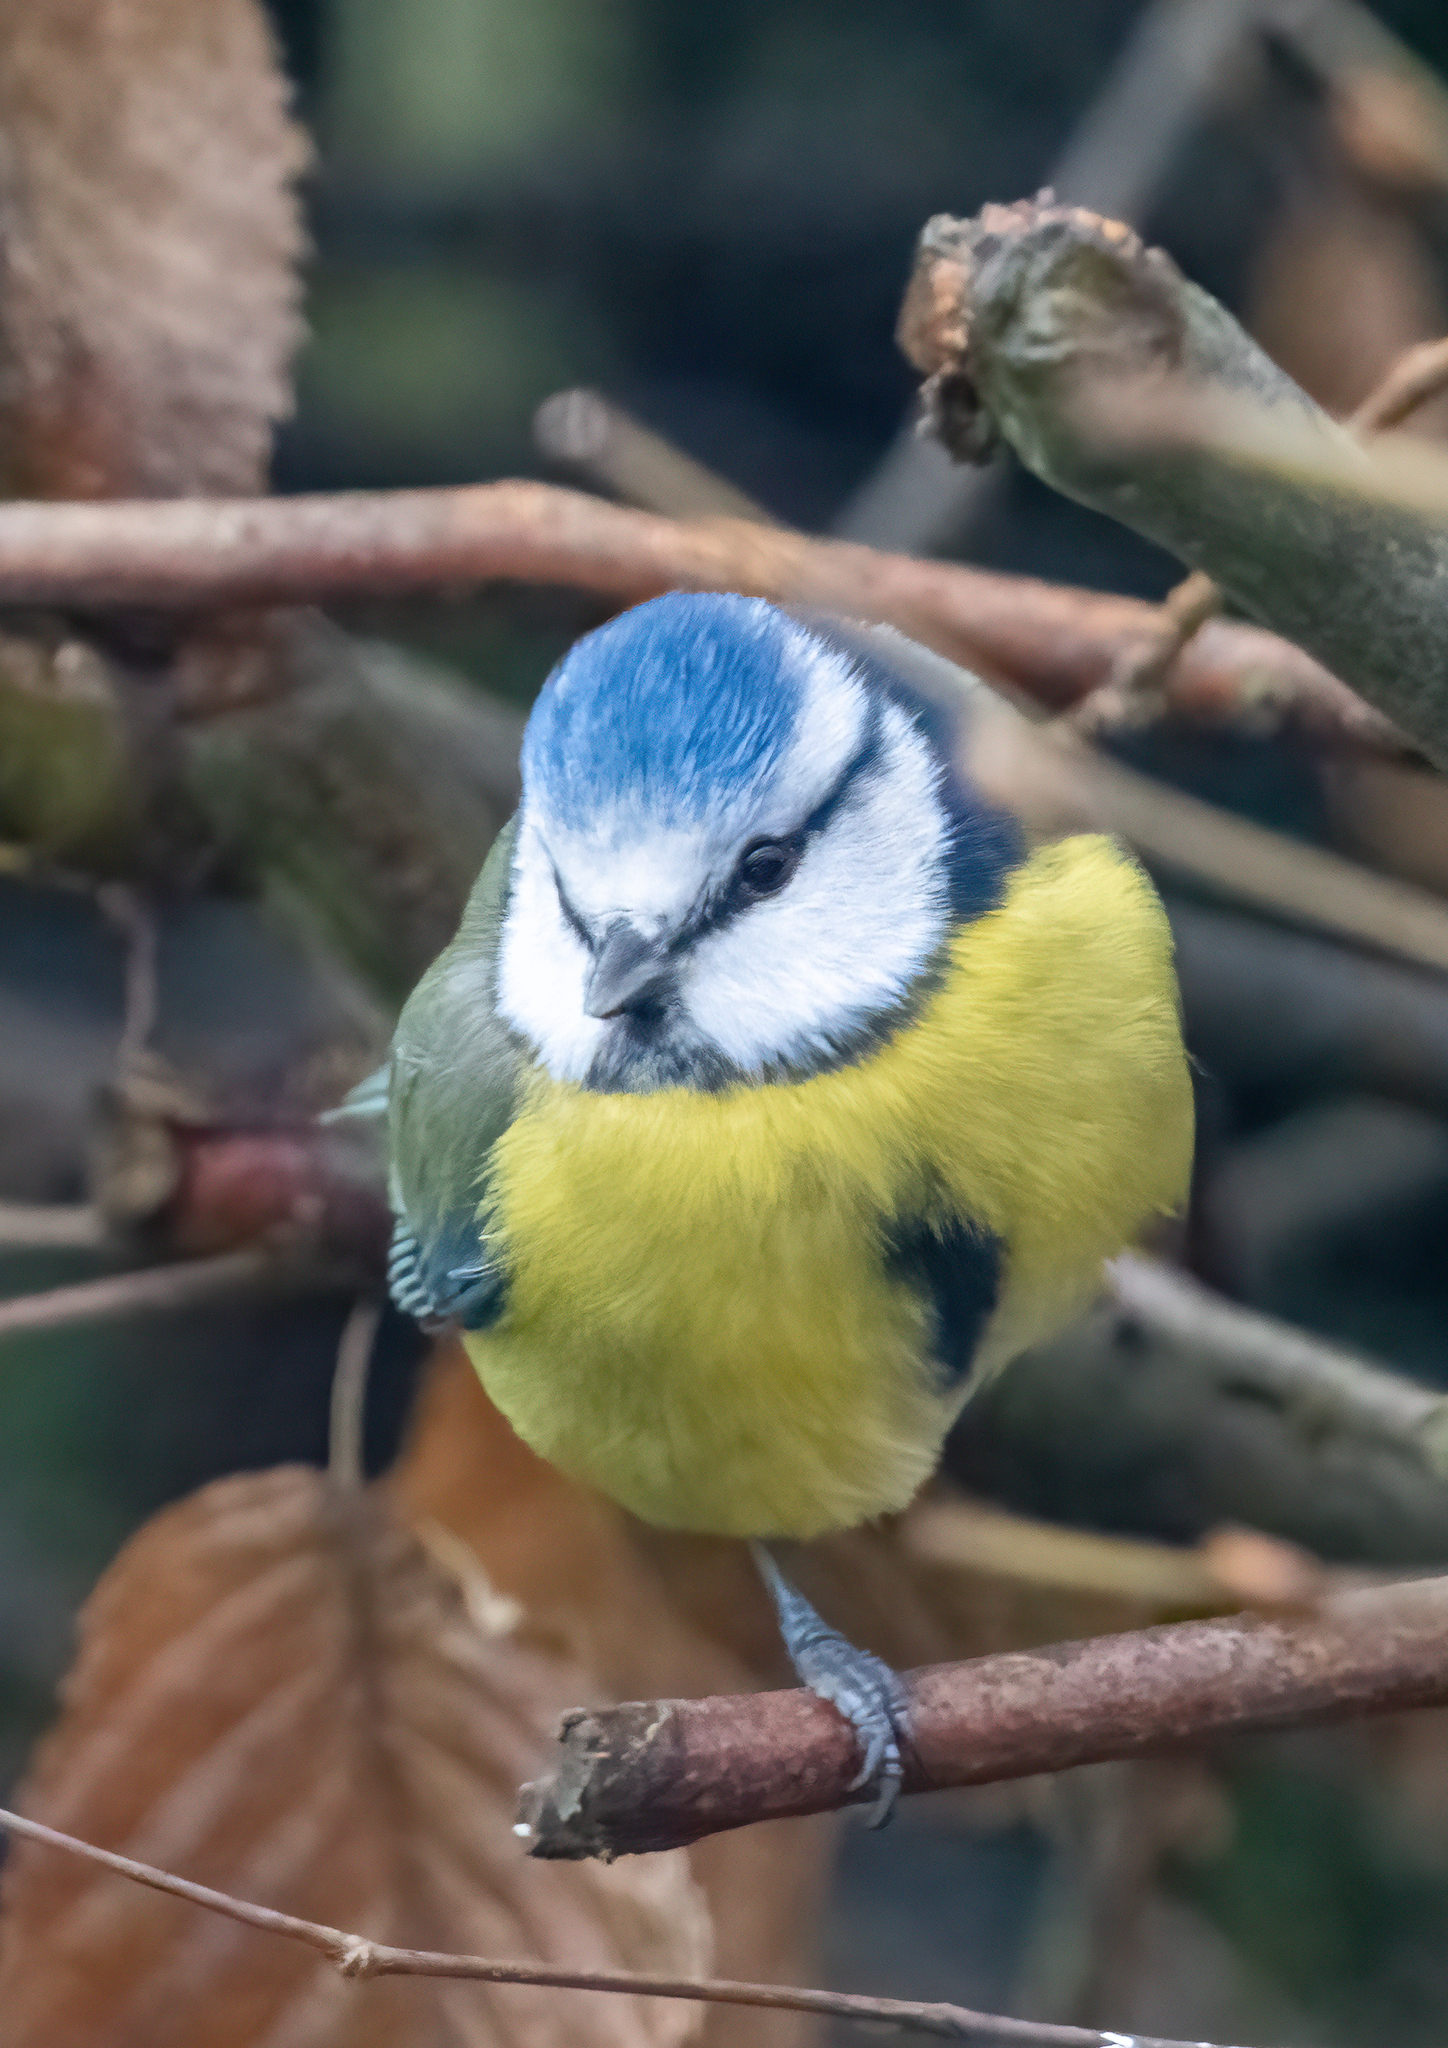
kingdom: Animalia
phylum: Chordata
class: Aves
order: Passeriformes
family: Paridae
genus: Cyanistes
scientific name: Cyanistes caeruleus
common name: Eurasian blue tit
